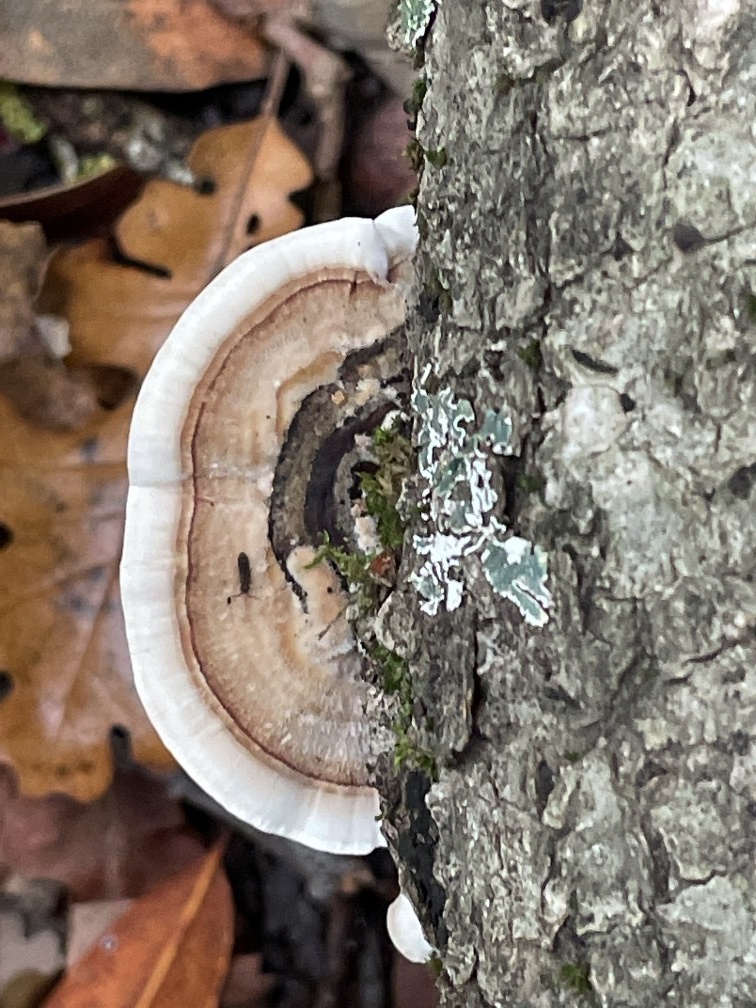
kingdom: Fungi
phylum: Basidiomycota
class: Agaricomycetes
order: Polyporales
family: Polyporaceae
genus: Trametes
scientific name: Trametes versicolor
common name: Turkeytail
